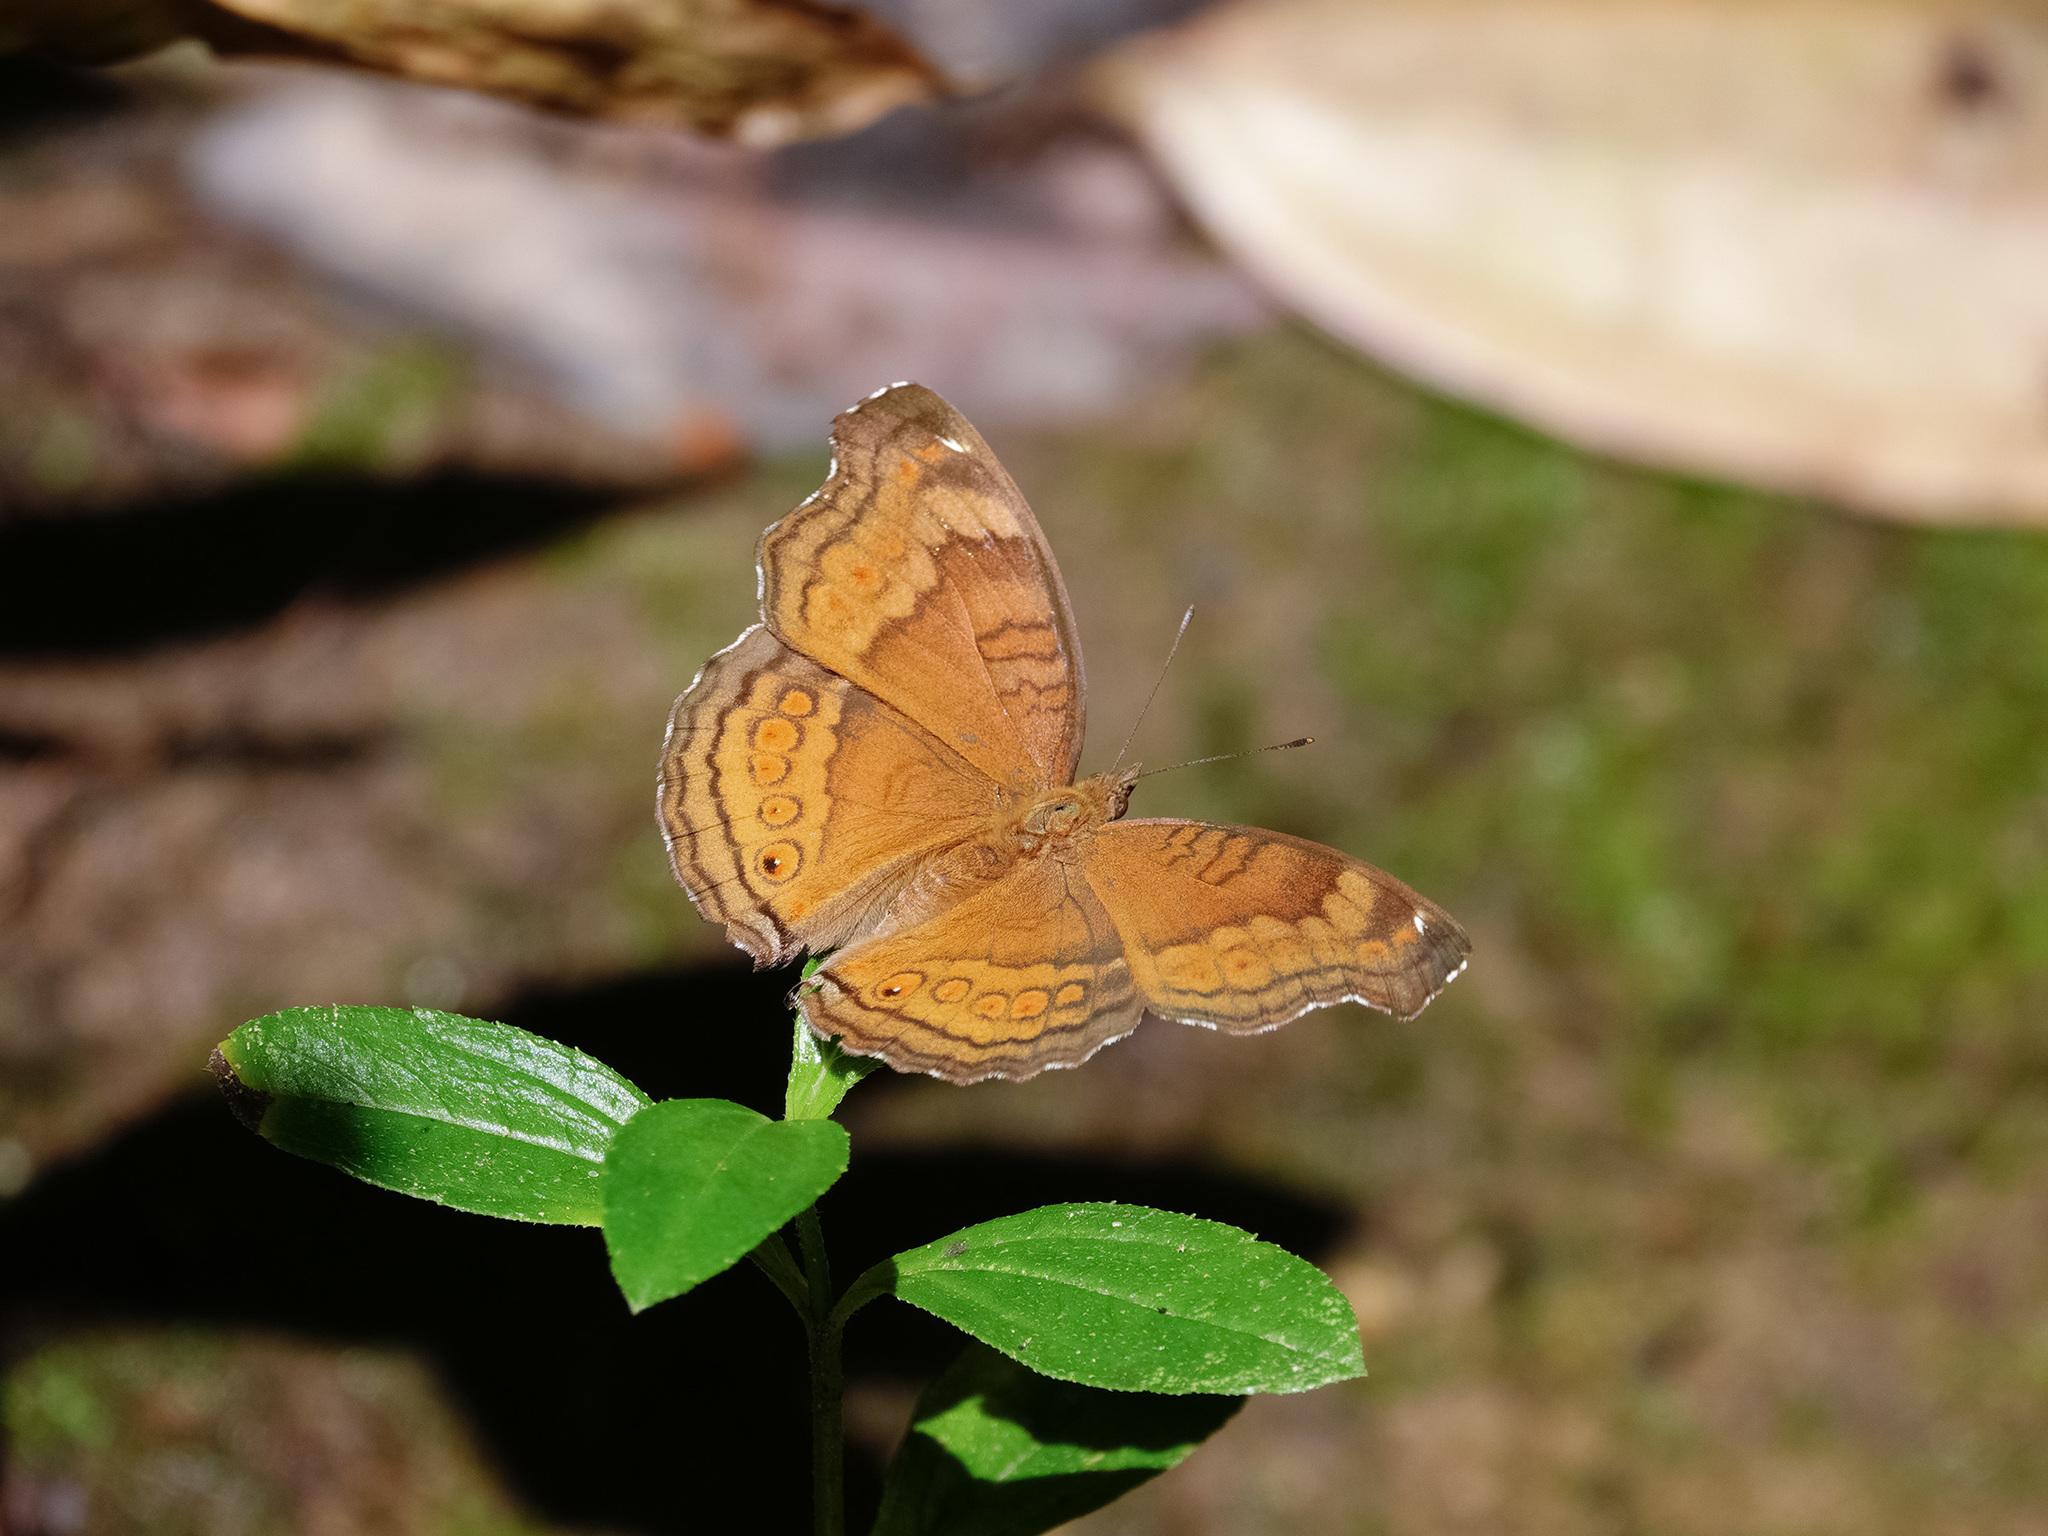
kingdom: Animalia
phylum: Arthropoda
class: Insecta
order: Lepidoptera
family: Nymphalidae
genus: Junonia
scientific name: Junonia hedonia
